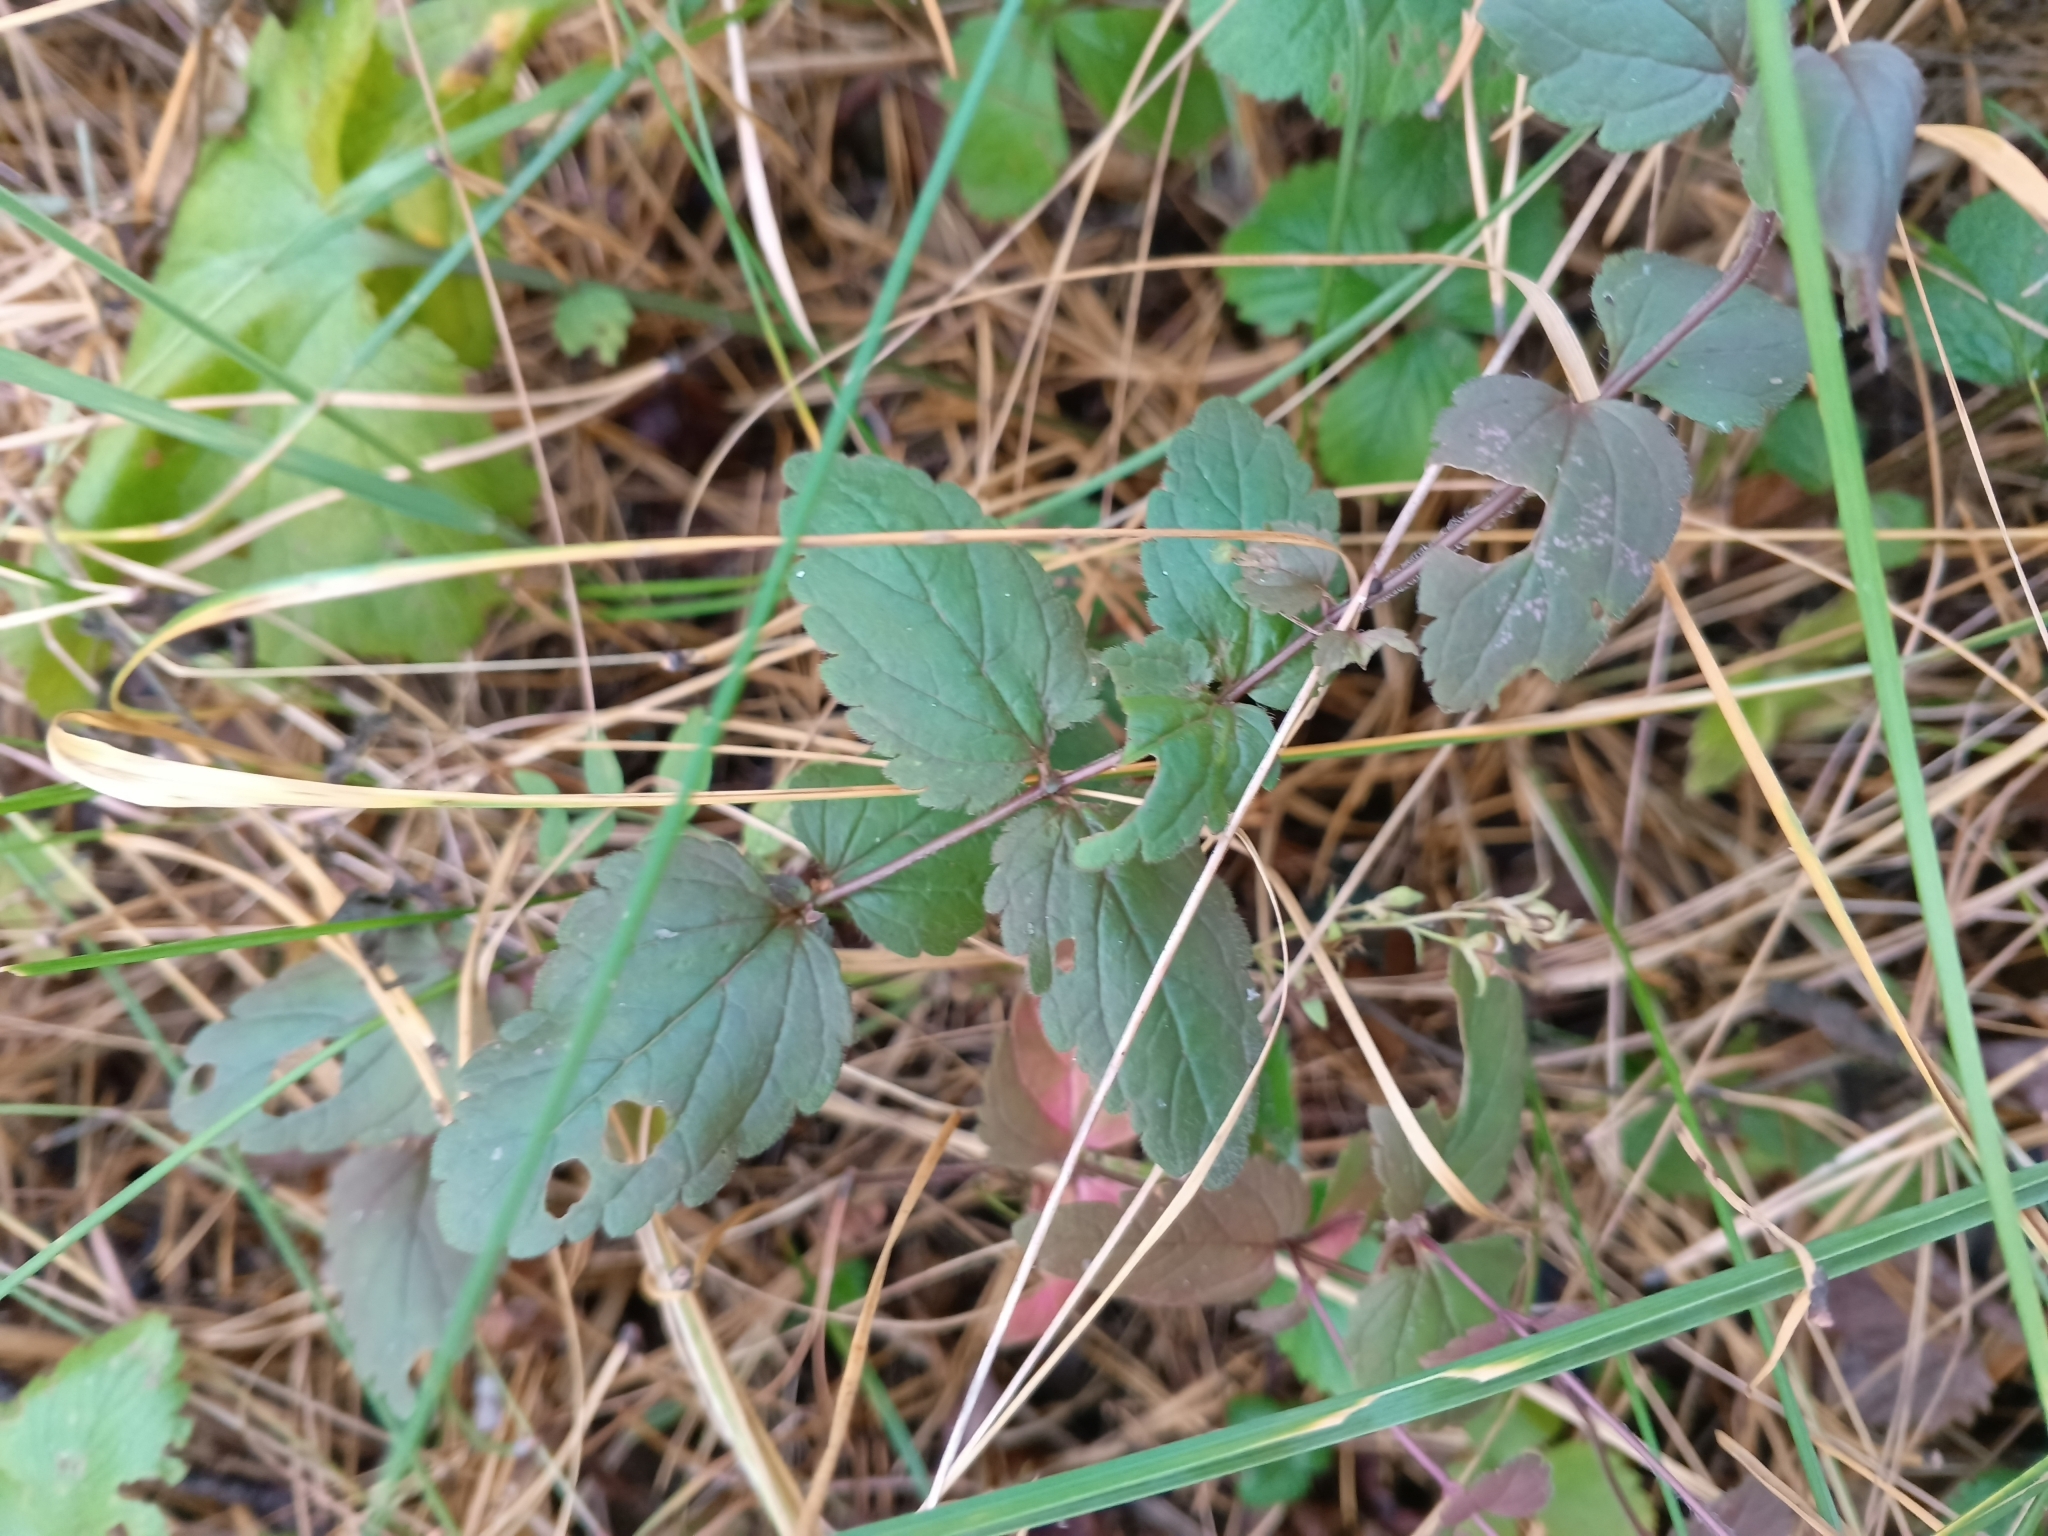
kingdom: Plantae
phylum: Tracheophyta
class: Magnoliopsida
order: Lamiales
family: Plantaginaceae
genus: Veronica
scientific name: Veronica chamaedrys
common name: Germander speedwell
